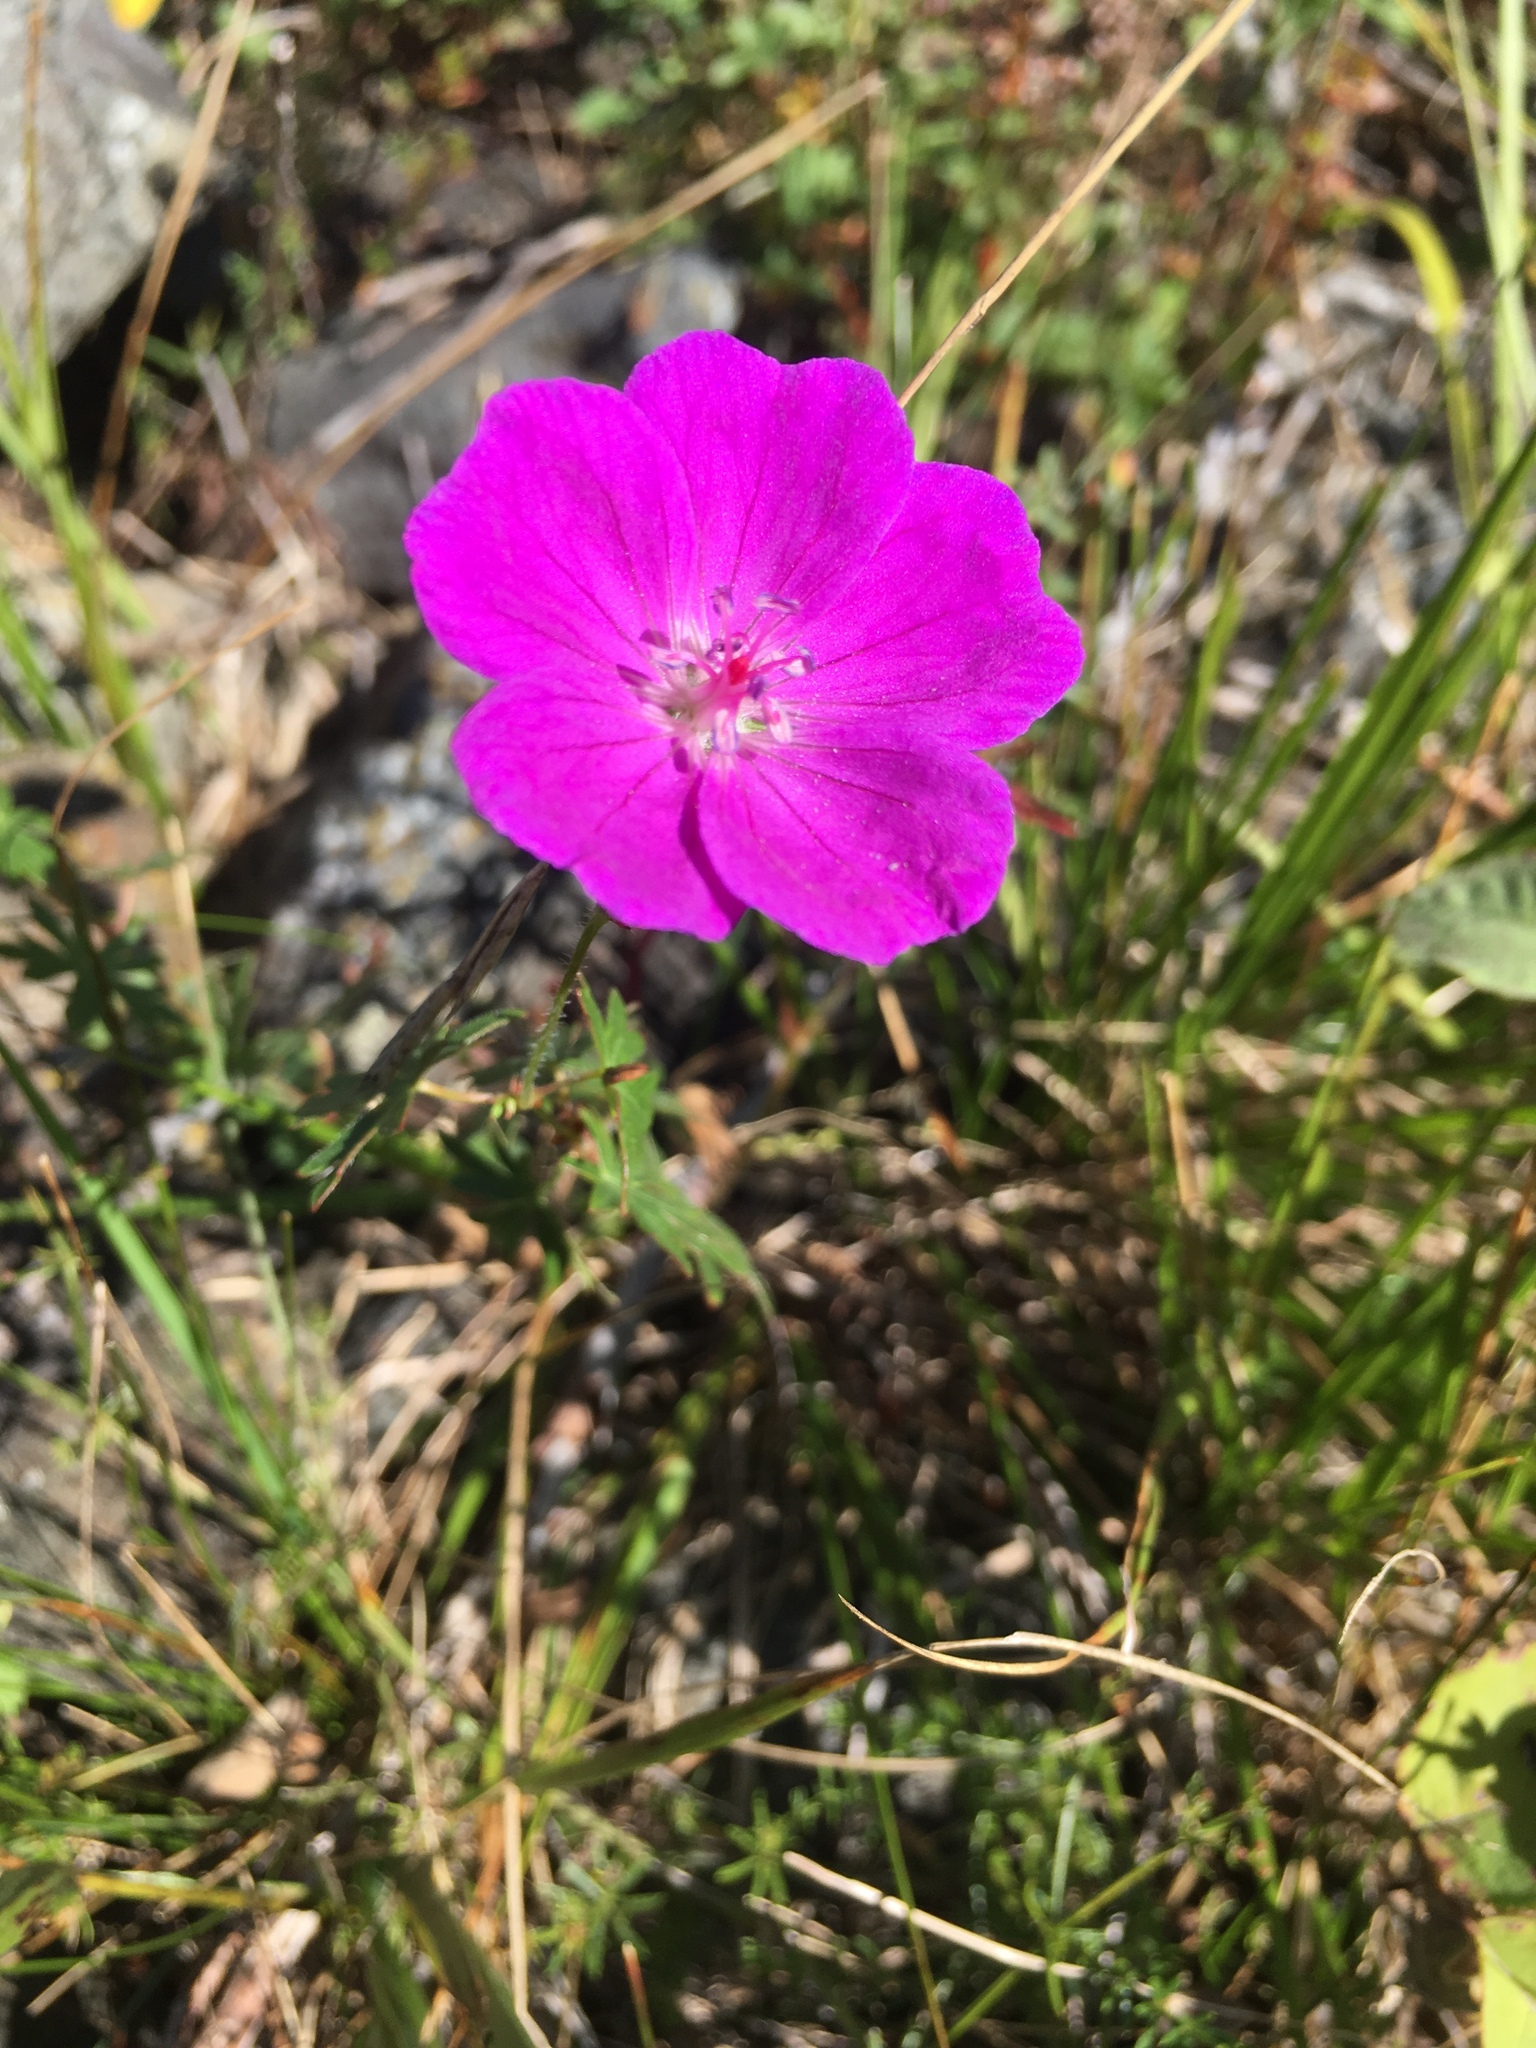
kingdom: Plantae
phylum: Tracheophyta
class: Magnoliopsida
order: Geraniales
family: Geraniaceae
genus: Geranium
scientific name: Geranium sanguineum
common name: Bloody crane's-bill
